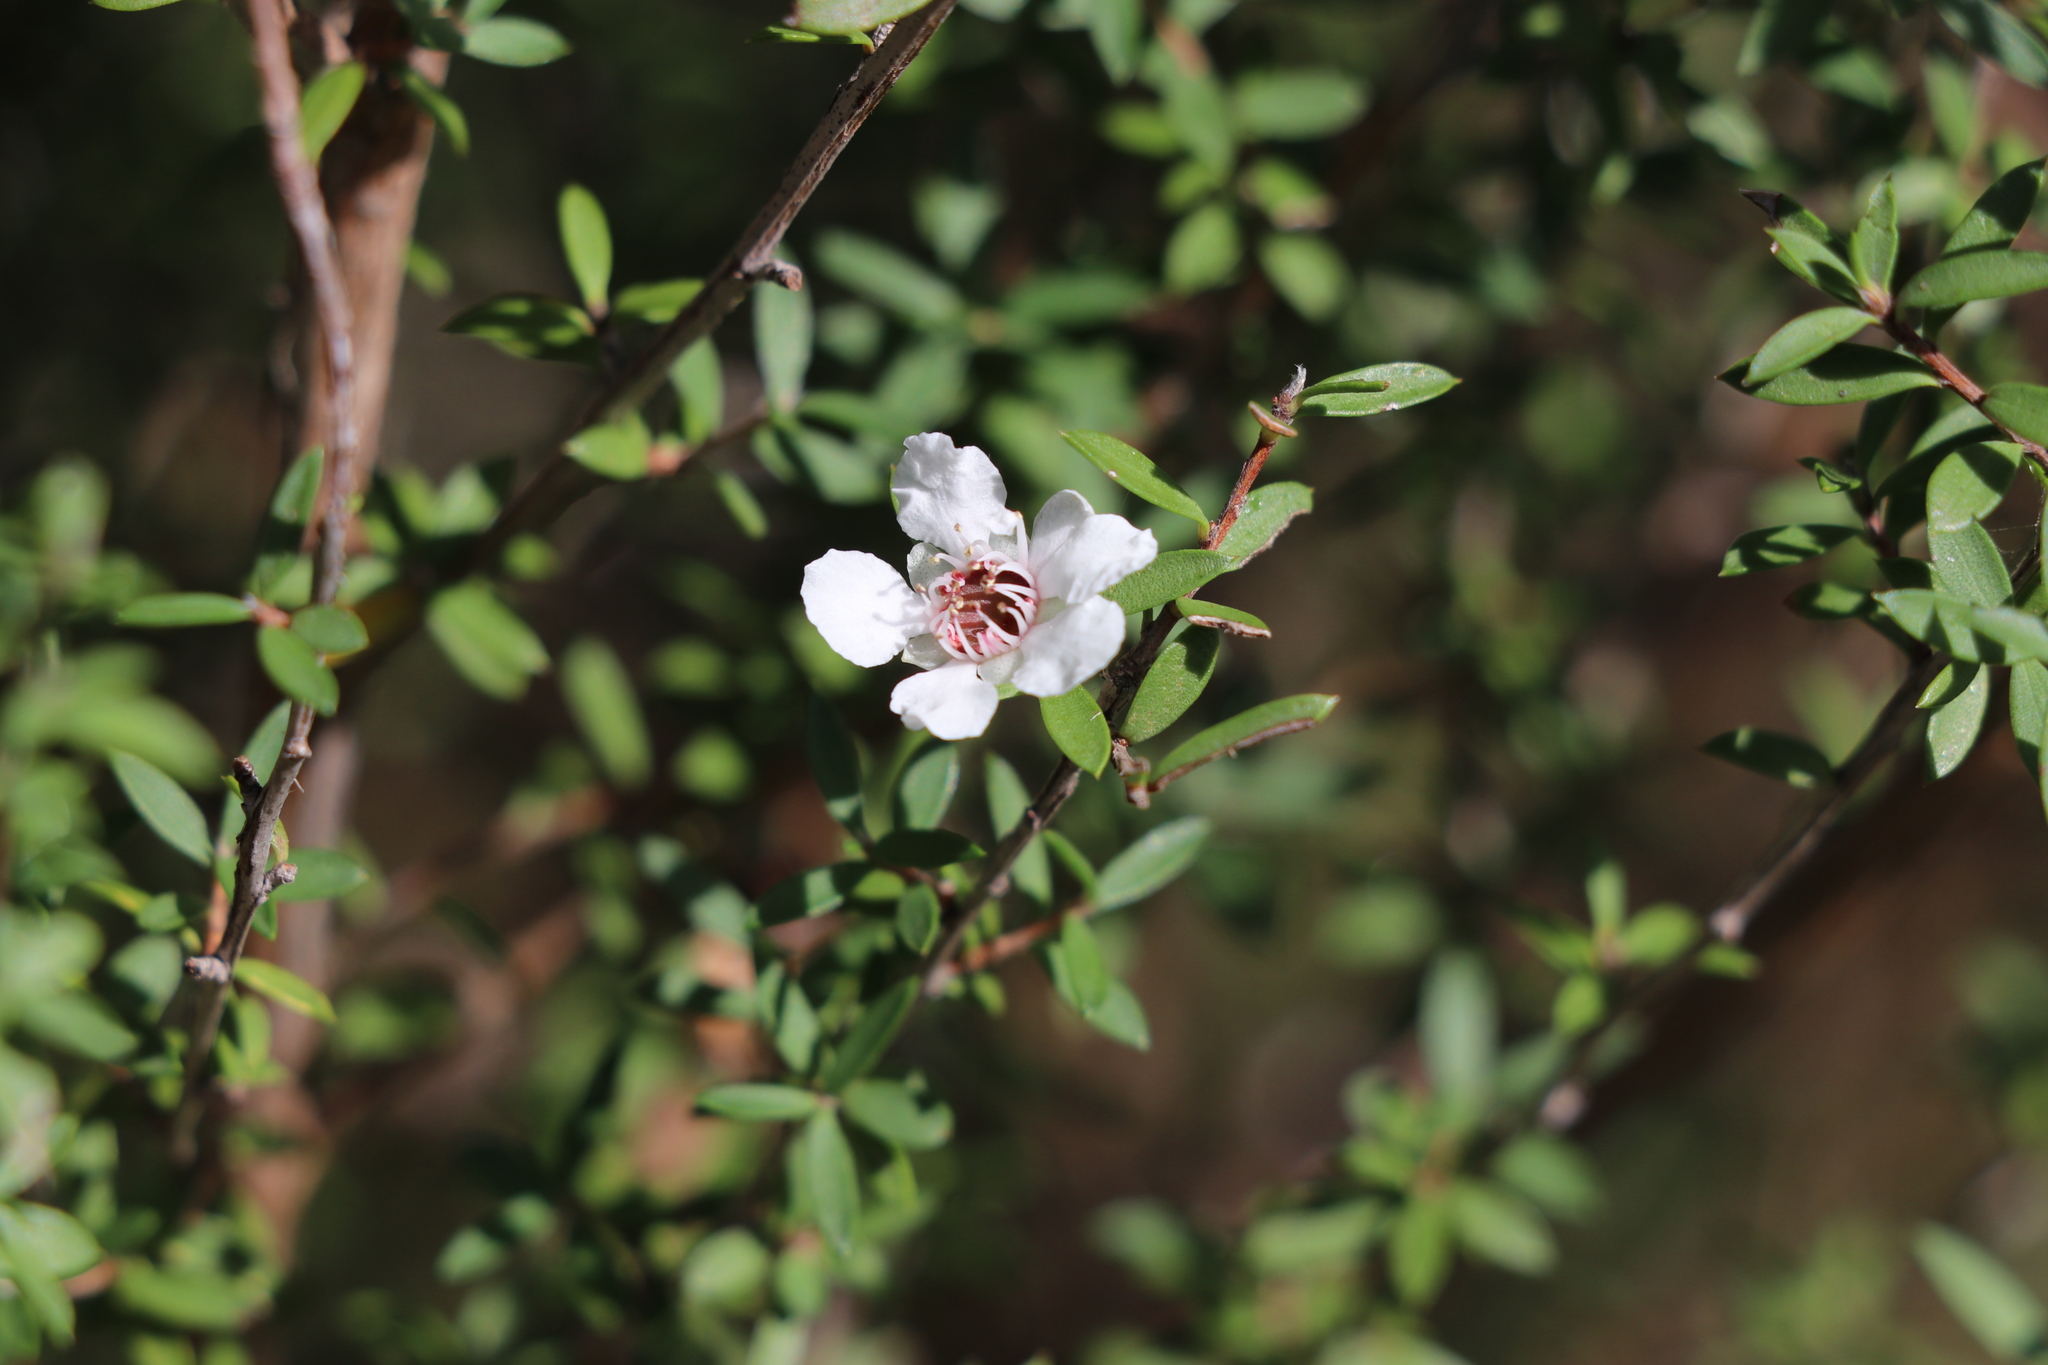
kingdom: Plantae
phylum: Tracheophyta
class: Magnoliopsida
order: Myrtales
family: Myrtaceae
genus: Leptospermum
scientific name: Leptospermum scoparium
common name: Broom tea-tree
